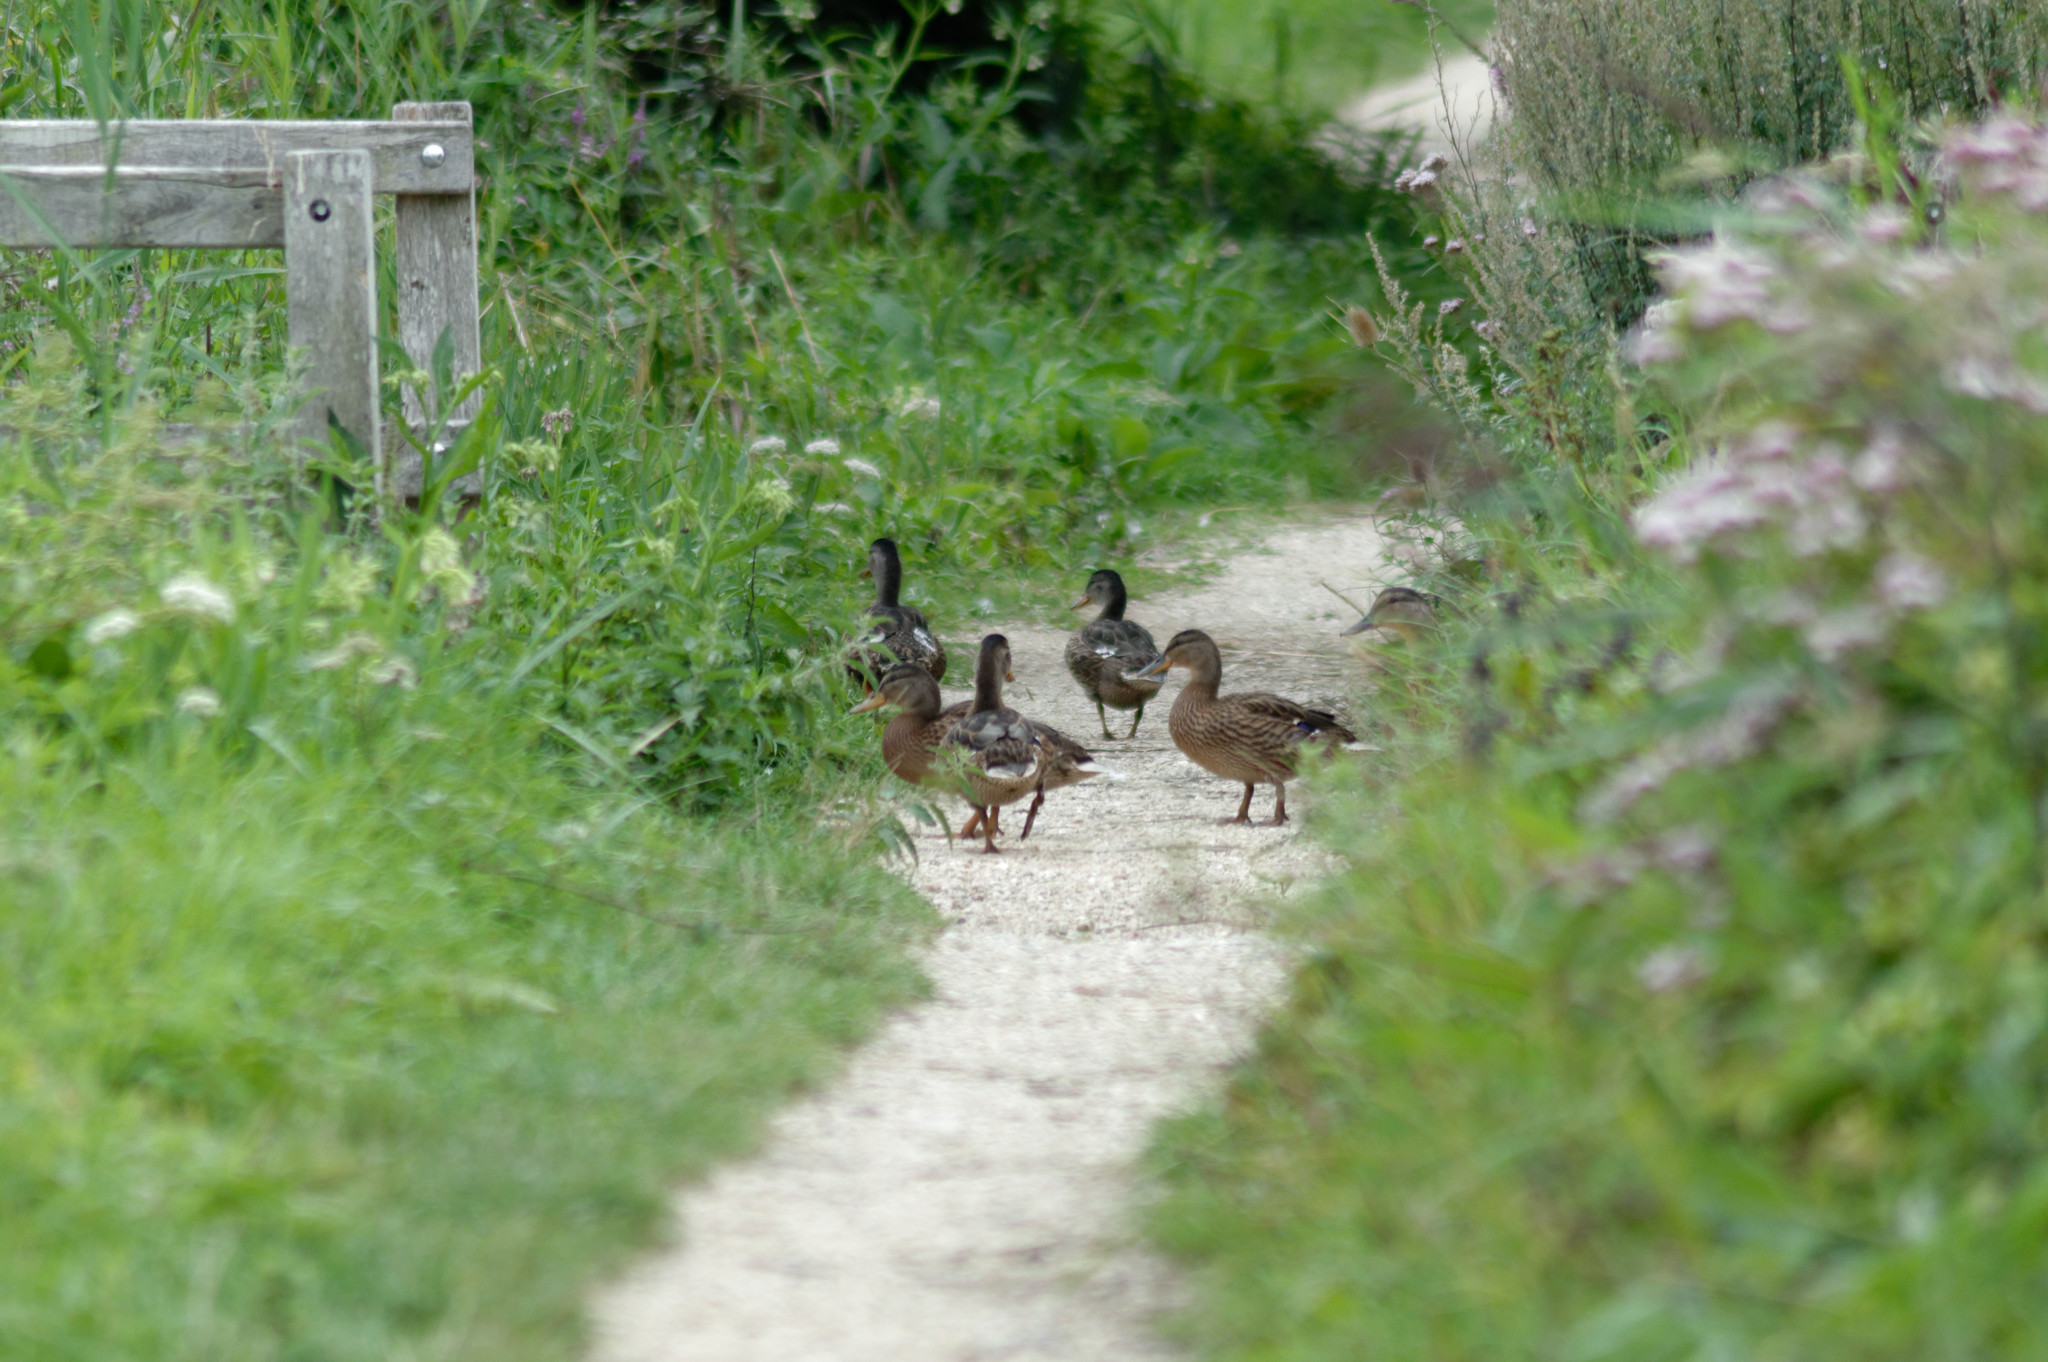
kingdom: Animalia
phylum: Chordata
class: Aves
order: Anseriformes
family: Anatidae
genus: Anas
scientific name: Anas platyrhynchos
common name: Mallard
